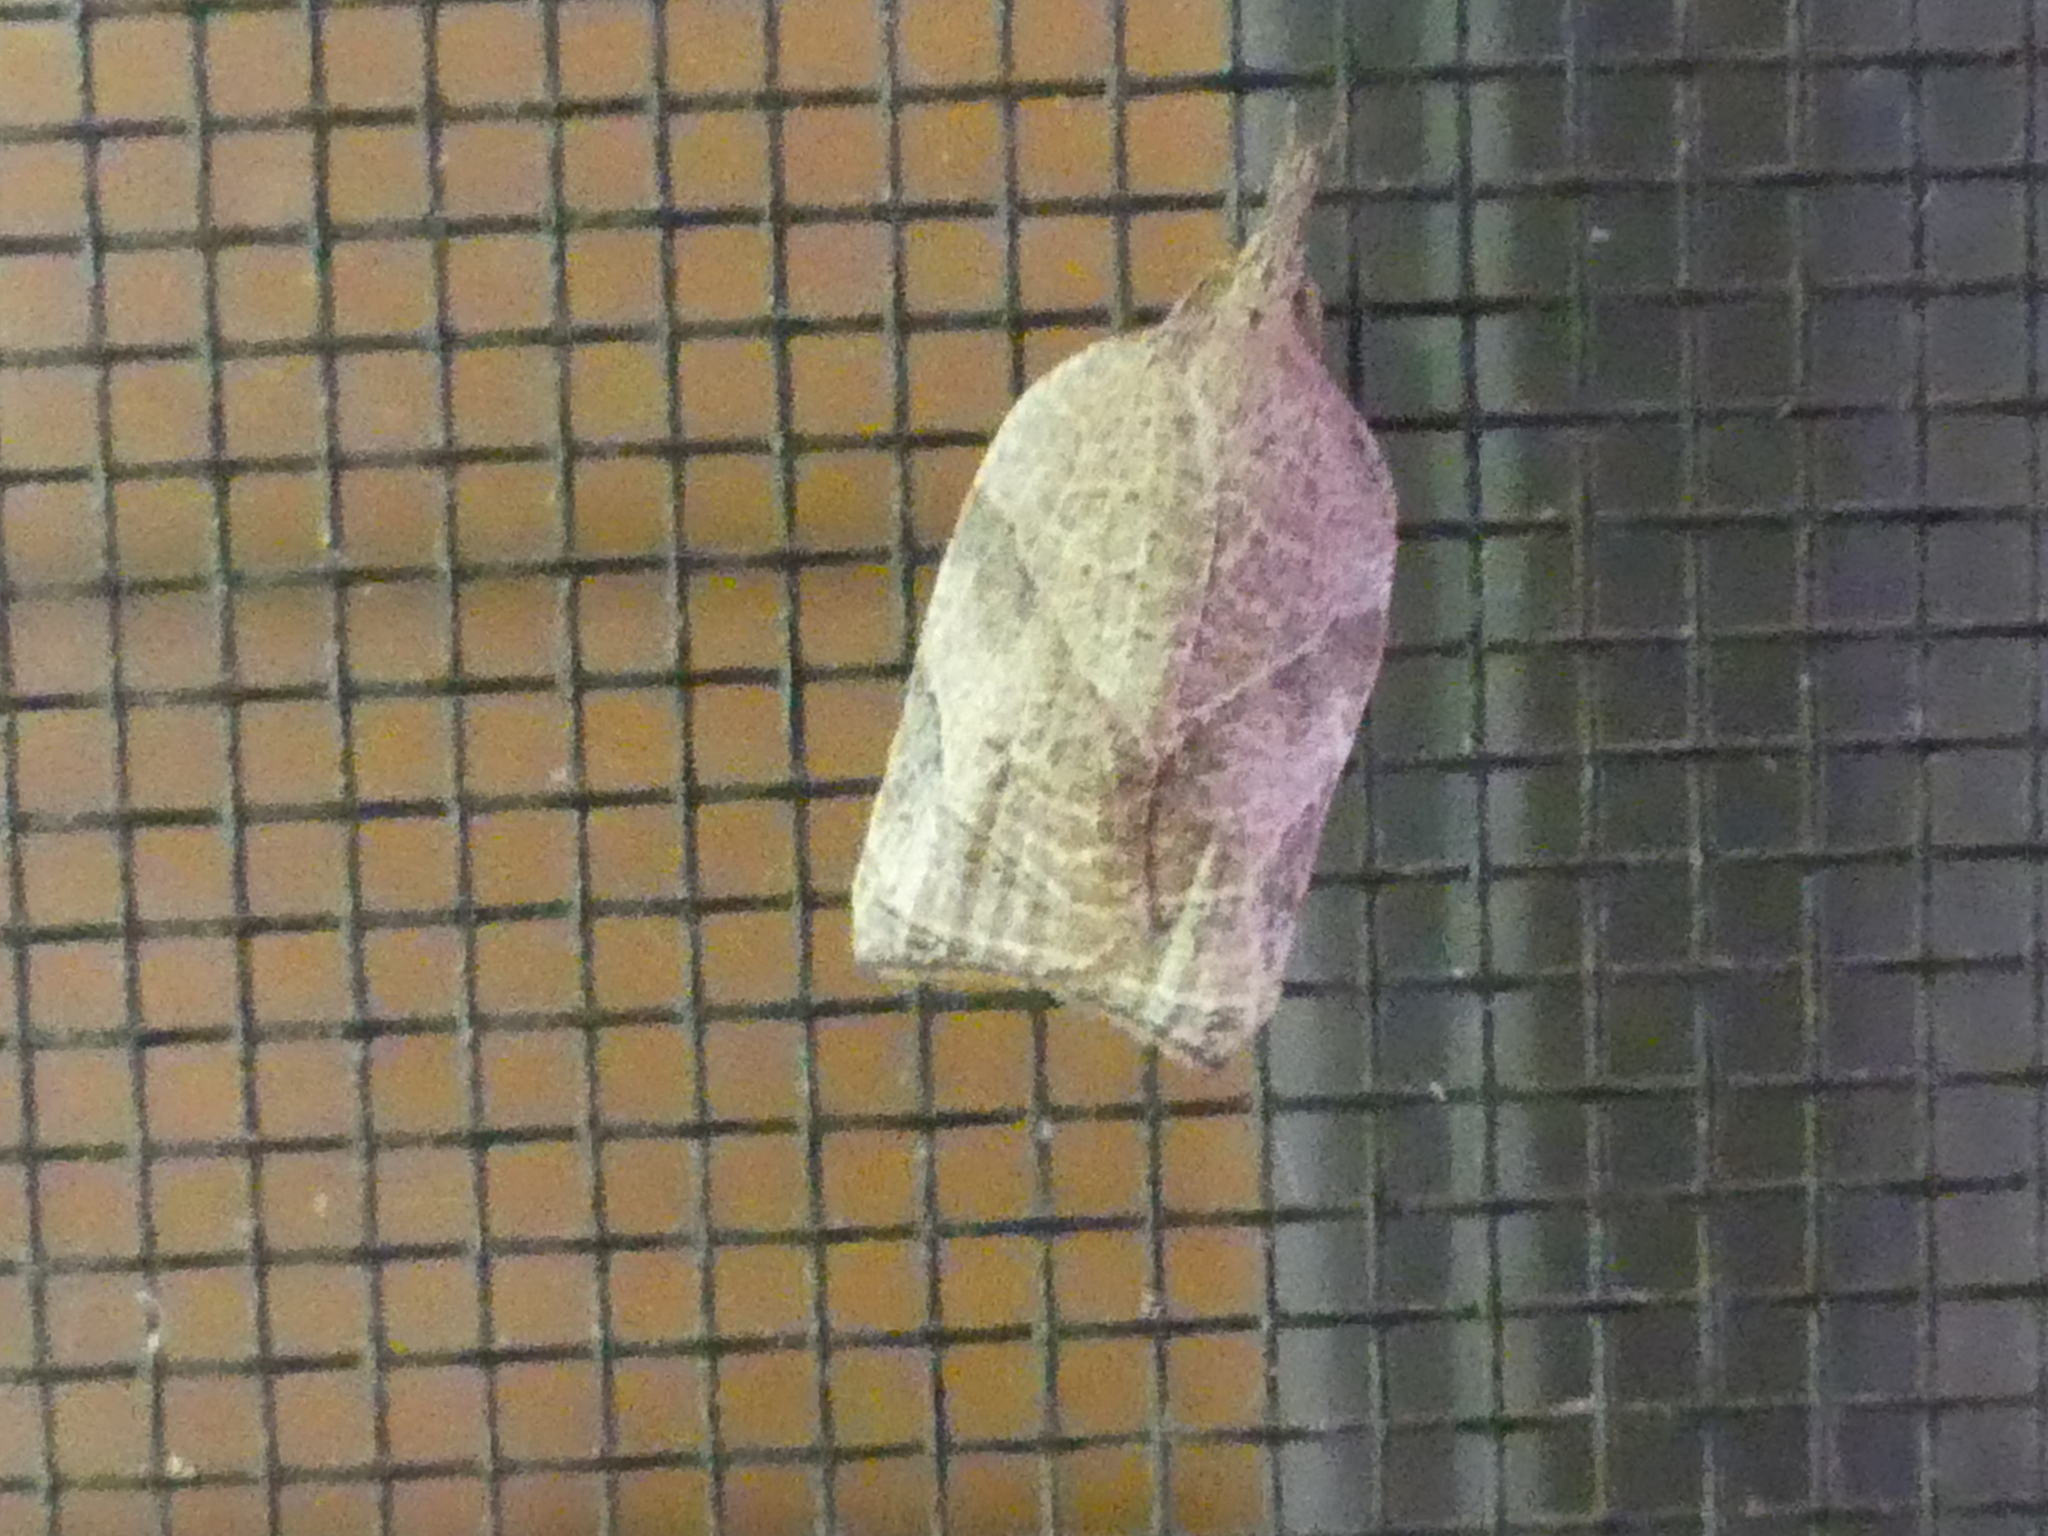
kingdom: Animalia
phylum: Arthropoda
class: Insecta
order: Lepidoptera
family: Tortricidae
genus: Platynota
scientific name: Platynota rostrana
